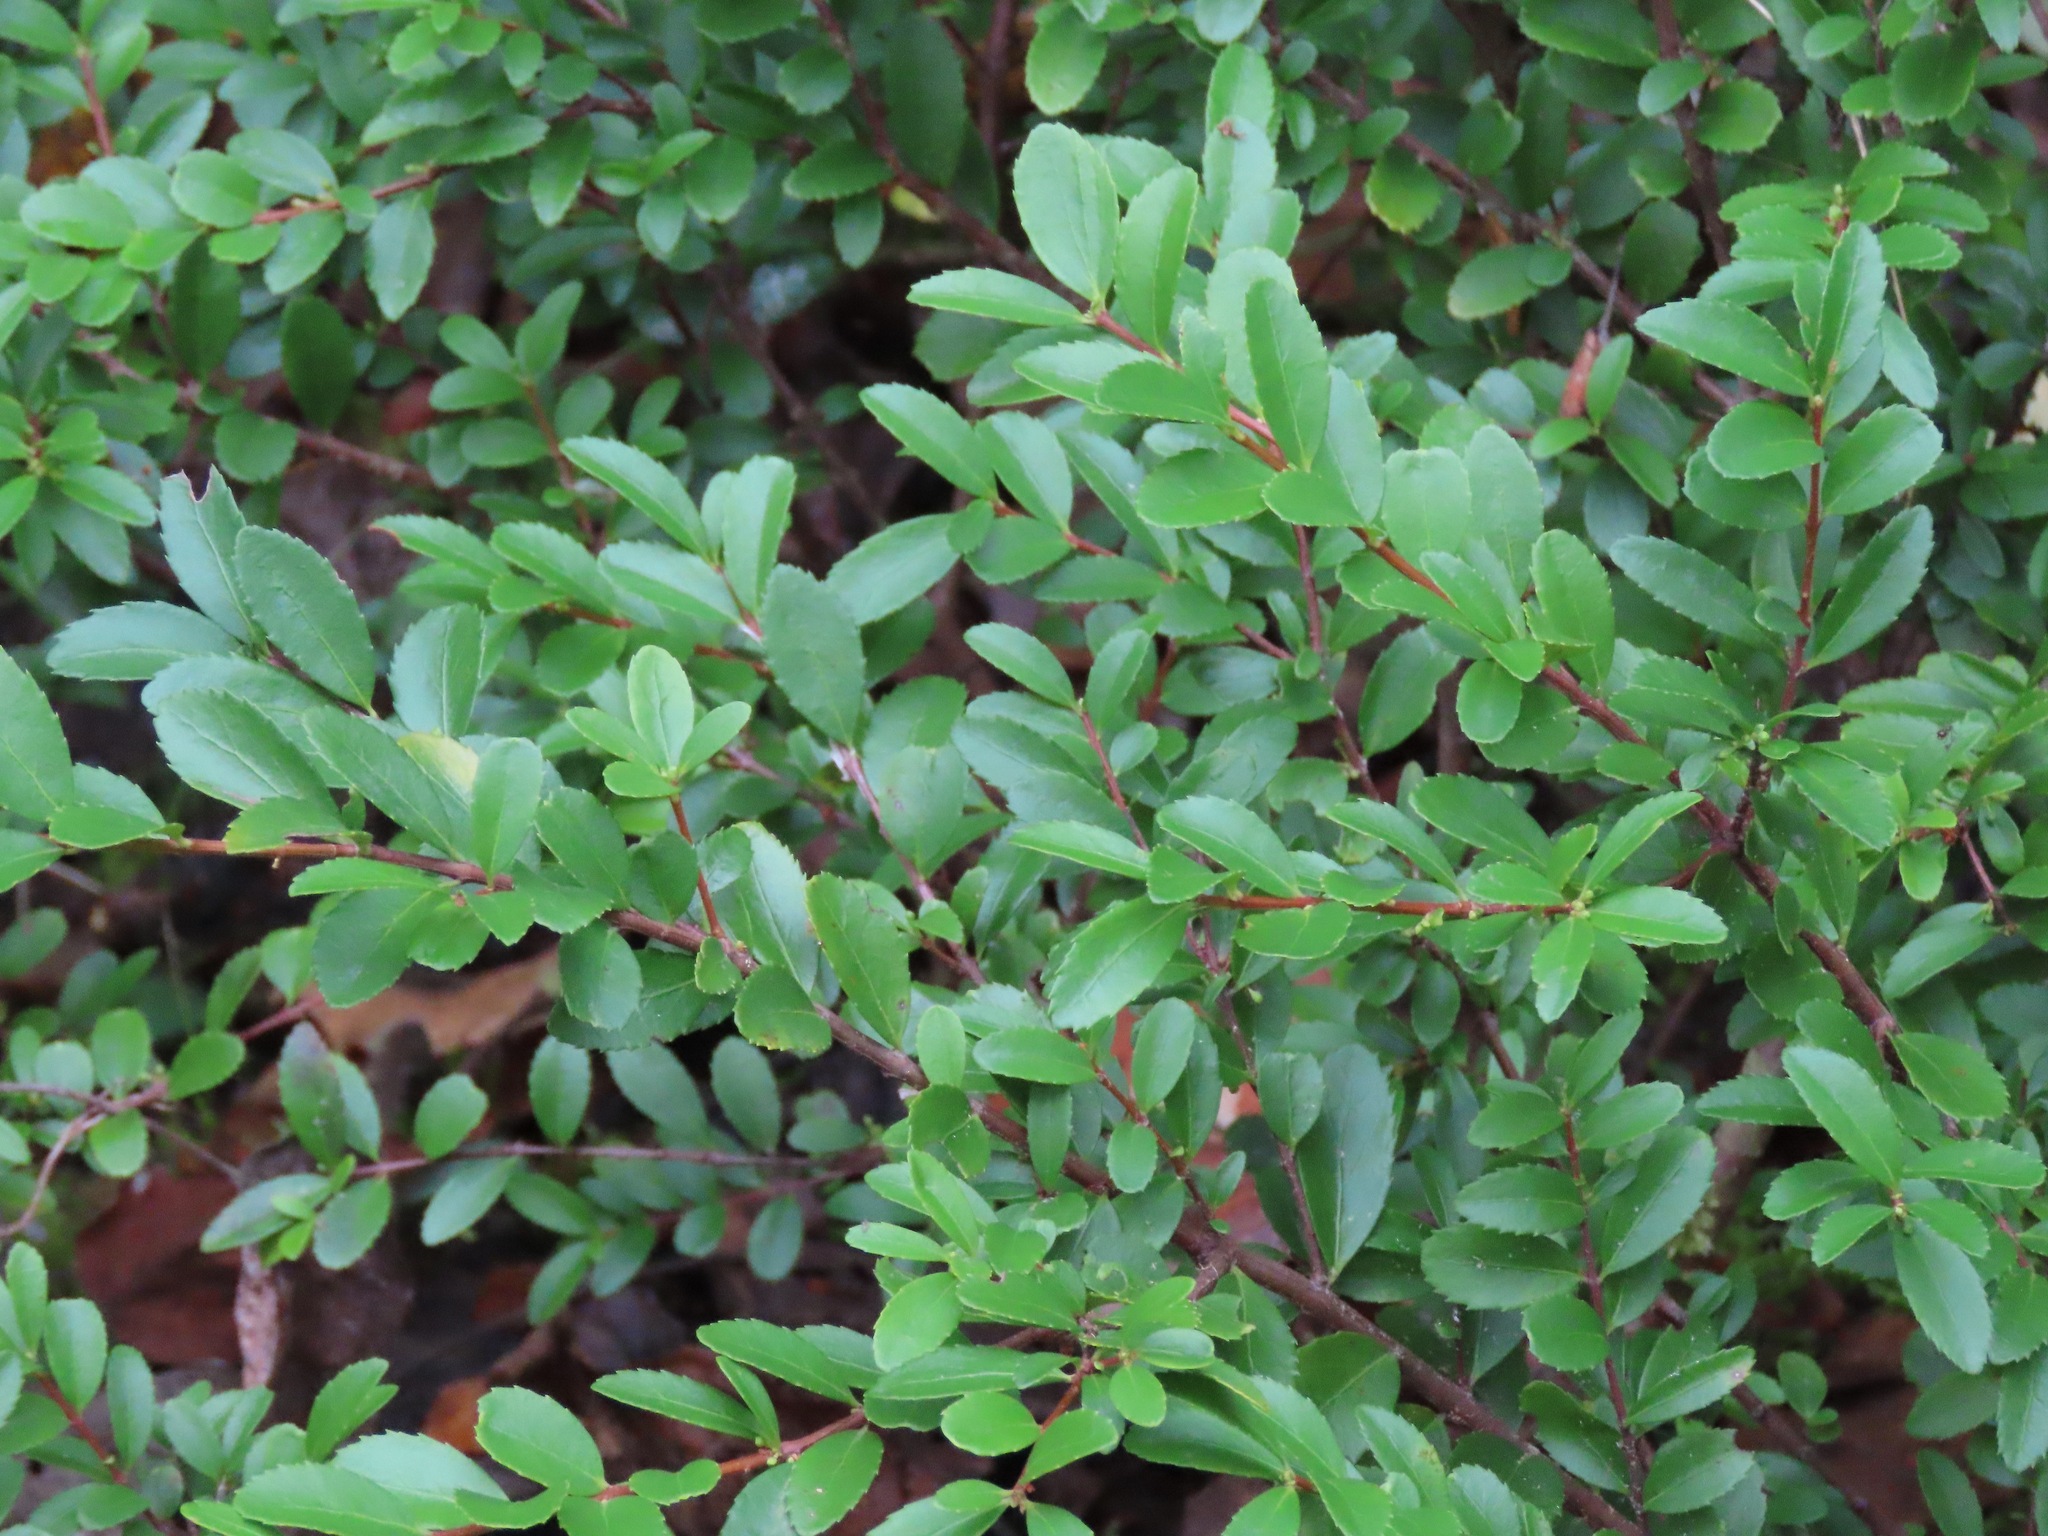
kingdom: Plantae
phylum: Tracheophyta
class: Magnoliopsida
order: Celastrales
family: Celastraceae
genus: Paxistima
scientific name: Paxistima myrsinites
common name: Mountain-lover
